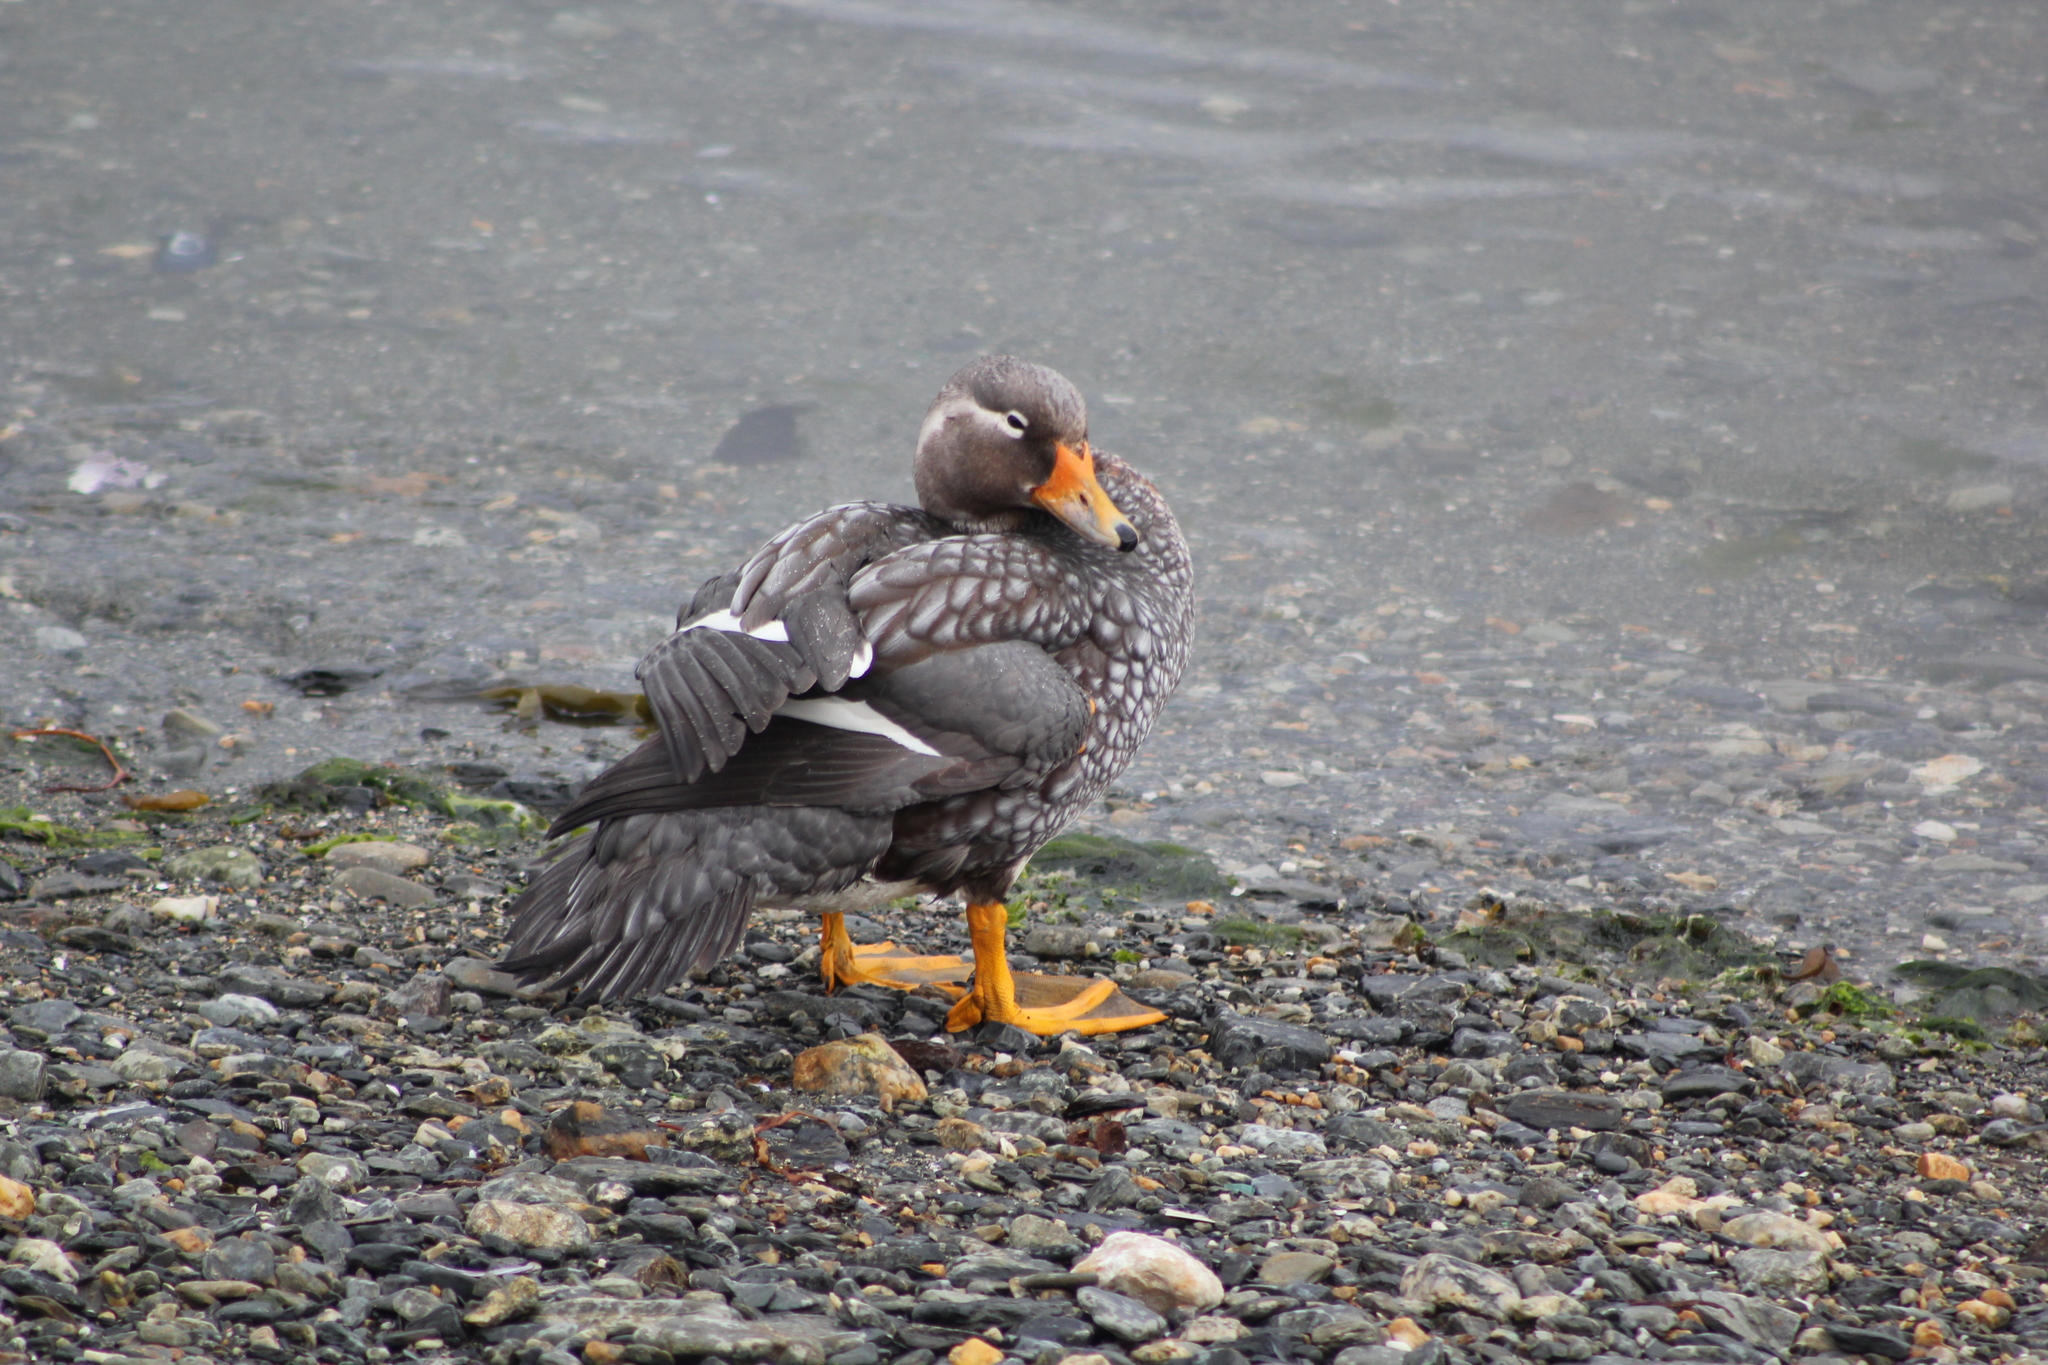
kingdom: Animalia
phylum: Chordata
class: Aves
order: Anseriformes
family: Anatidae
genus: Tachyeres
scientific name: Tachyeres patachonicus
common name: Flying steamer duck
